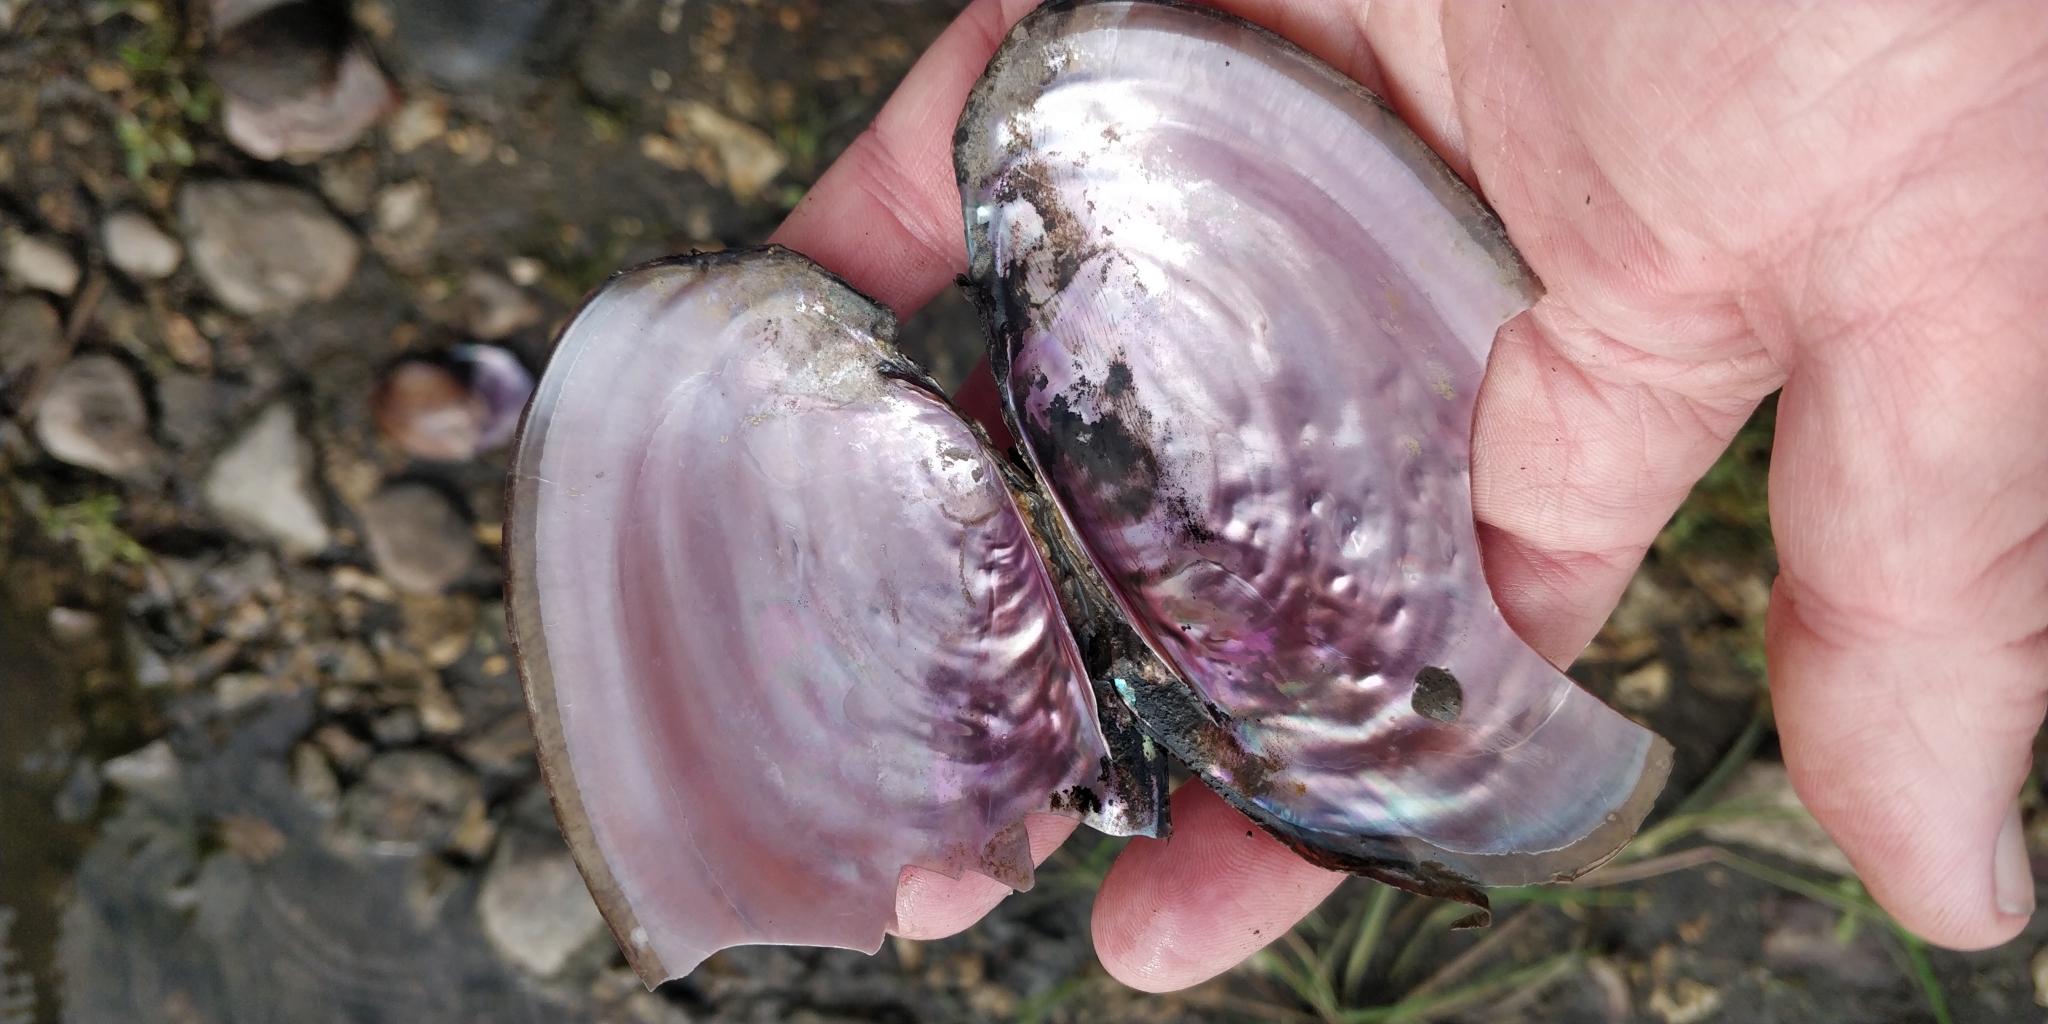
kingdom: Animalia
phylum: Mollusca
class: Bivalvia
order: Unionida
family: Unionidae
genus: Potamilus
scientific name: Potamilus ohiensis
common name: Pink papershell
